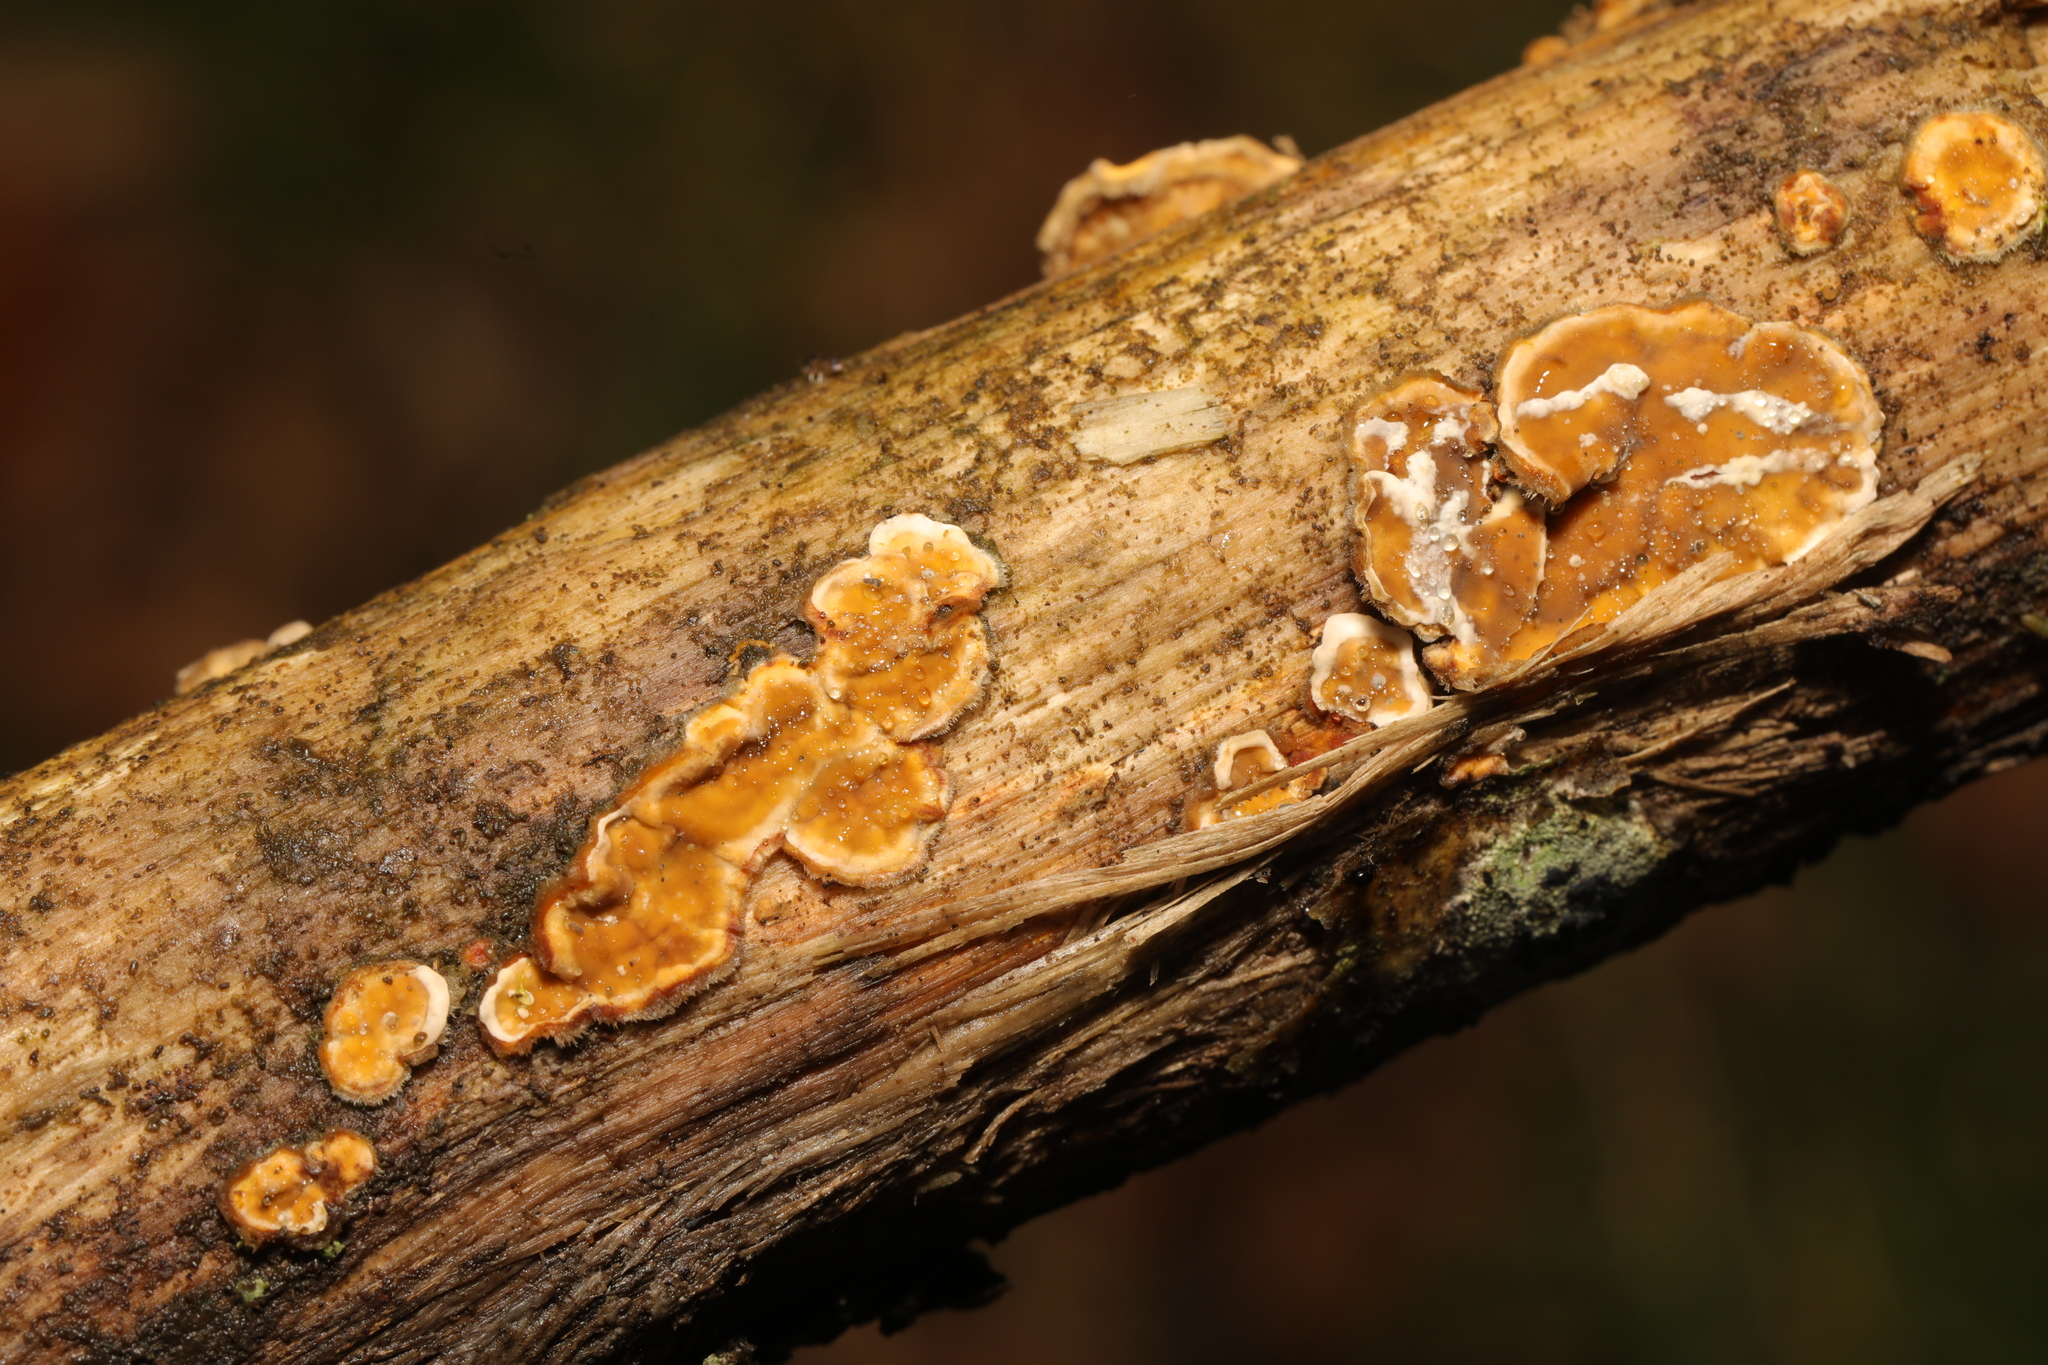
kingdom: Fungi
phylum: Basidiomycota
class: Agaricomycetes
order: Russulales
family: Stereaceae
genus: Stereum
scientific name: Stereum hirsutum
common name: Hairy curtain crust
